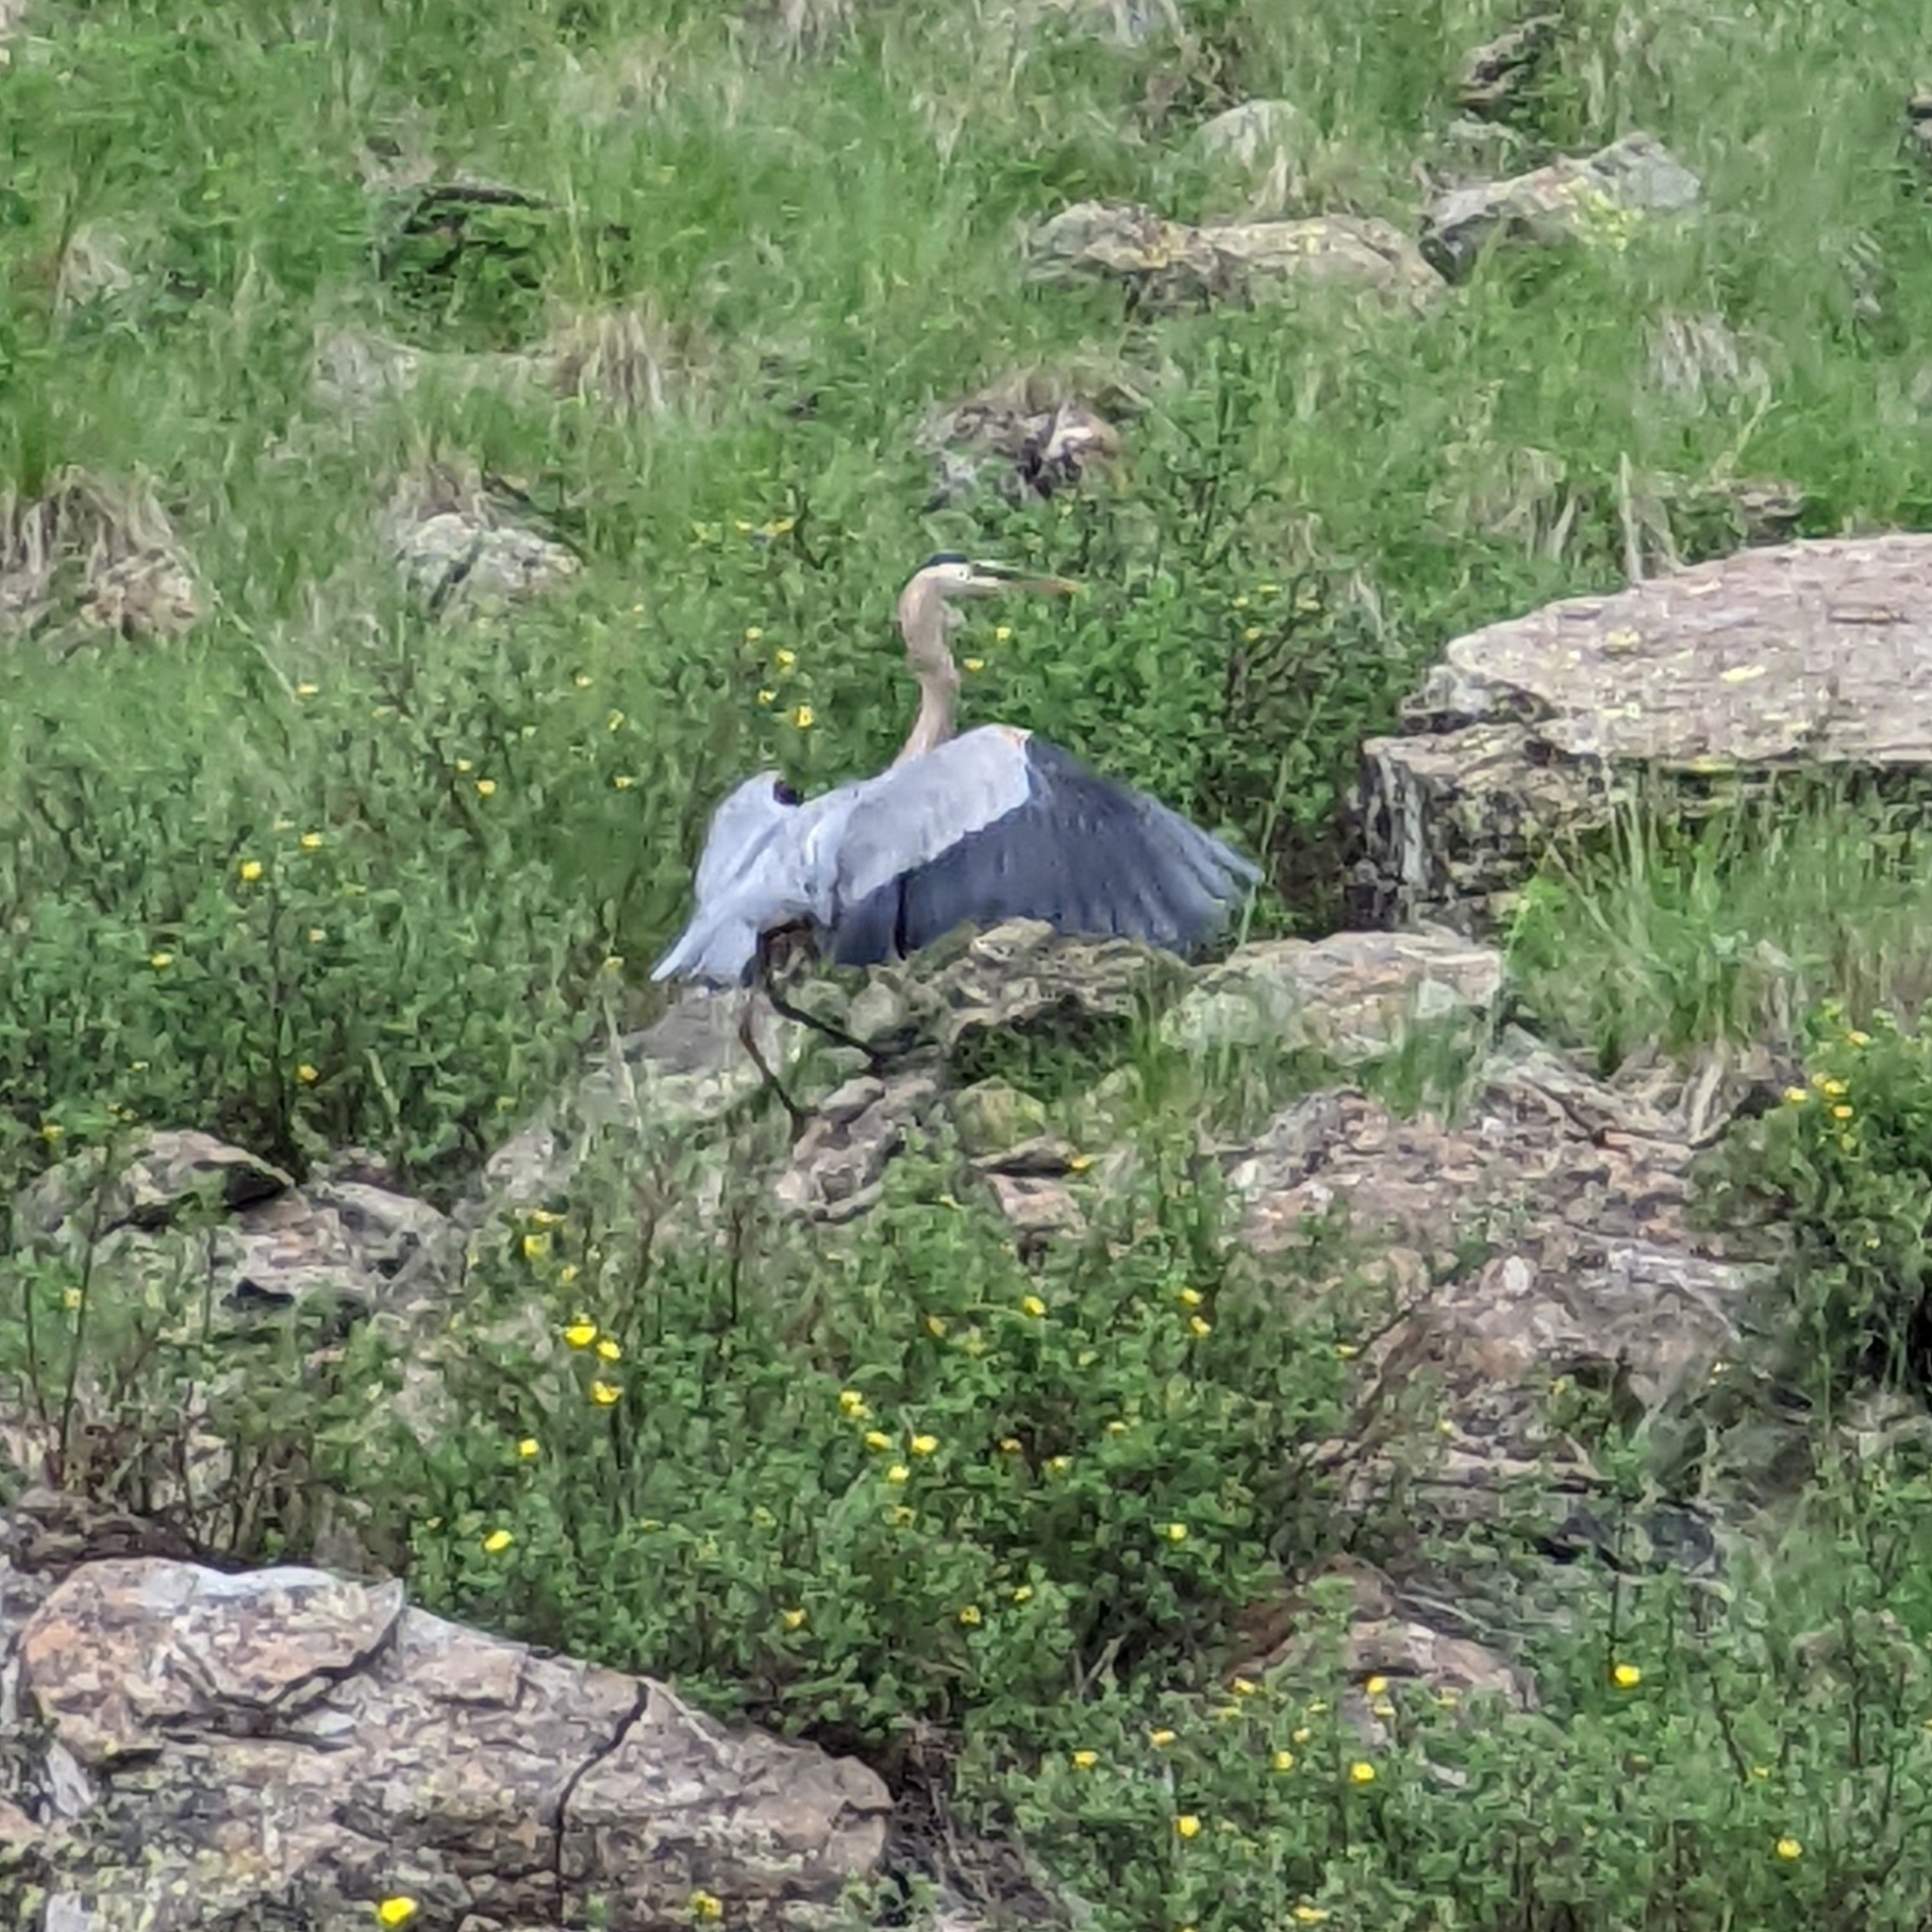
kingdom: Animalia
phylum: Chordata
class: Aves
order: Pelecaniformes
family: Ardeidae
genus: Ardea
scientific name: Ardea herodias
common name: Great blue heron
